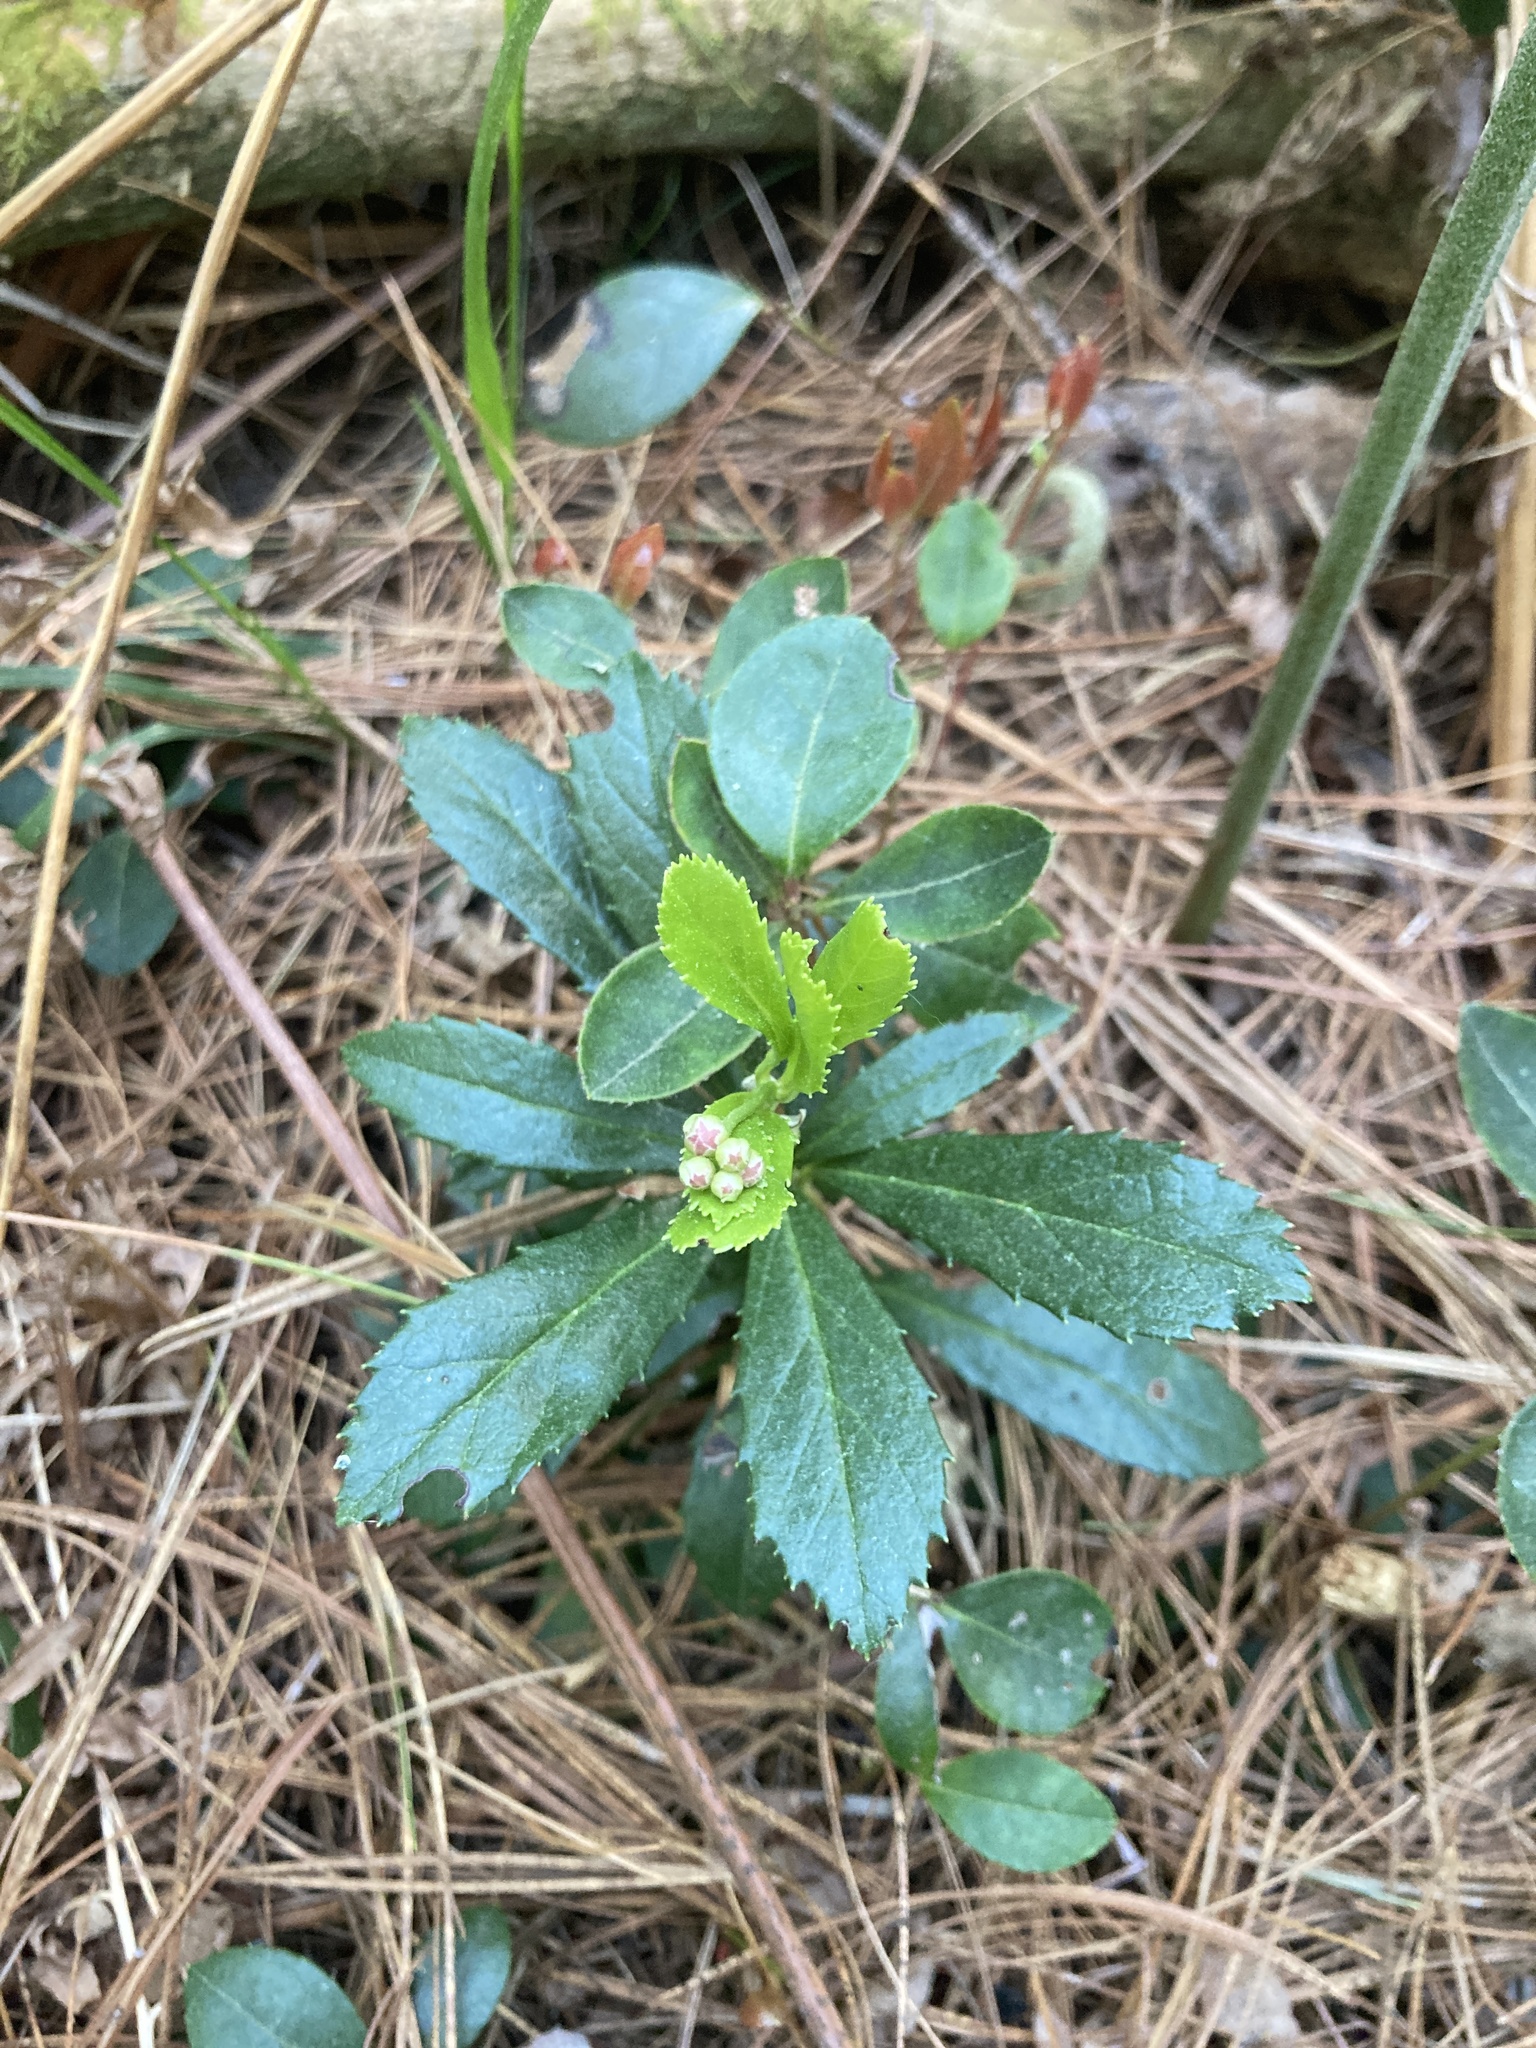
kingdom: Plantae
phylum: Tracheophyta
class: Magnoliopsida
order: Ericales
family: Ericaceae
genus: Chimaphila
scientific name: Chimaphila umbellata
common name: Pipsissewa
